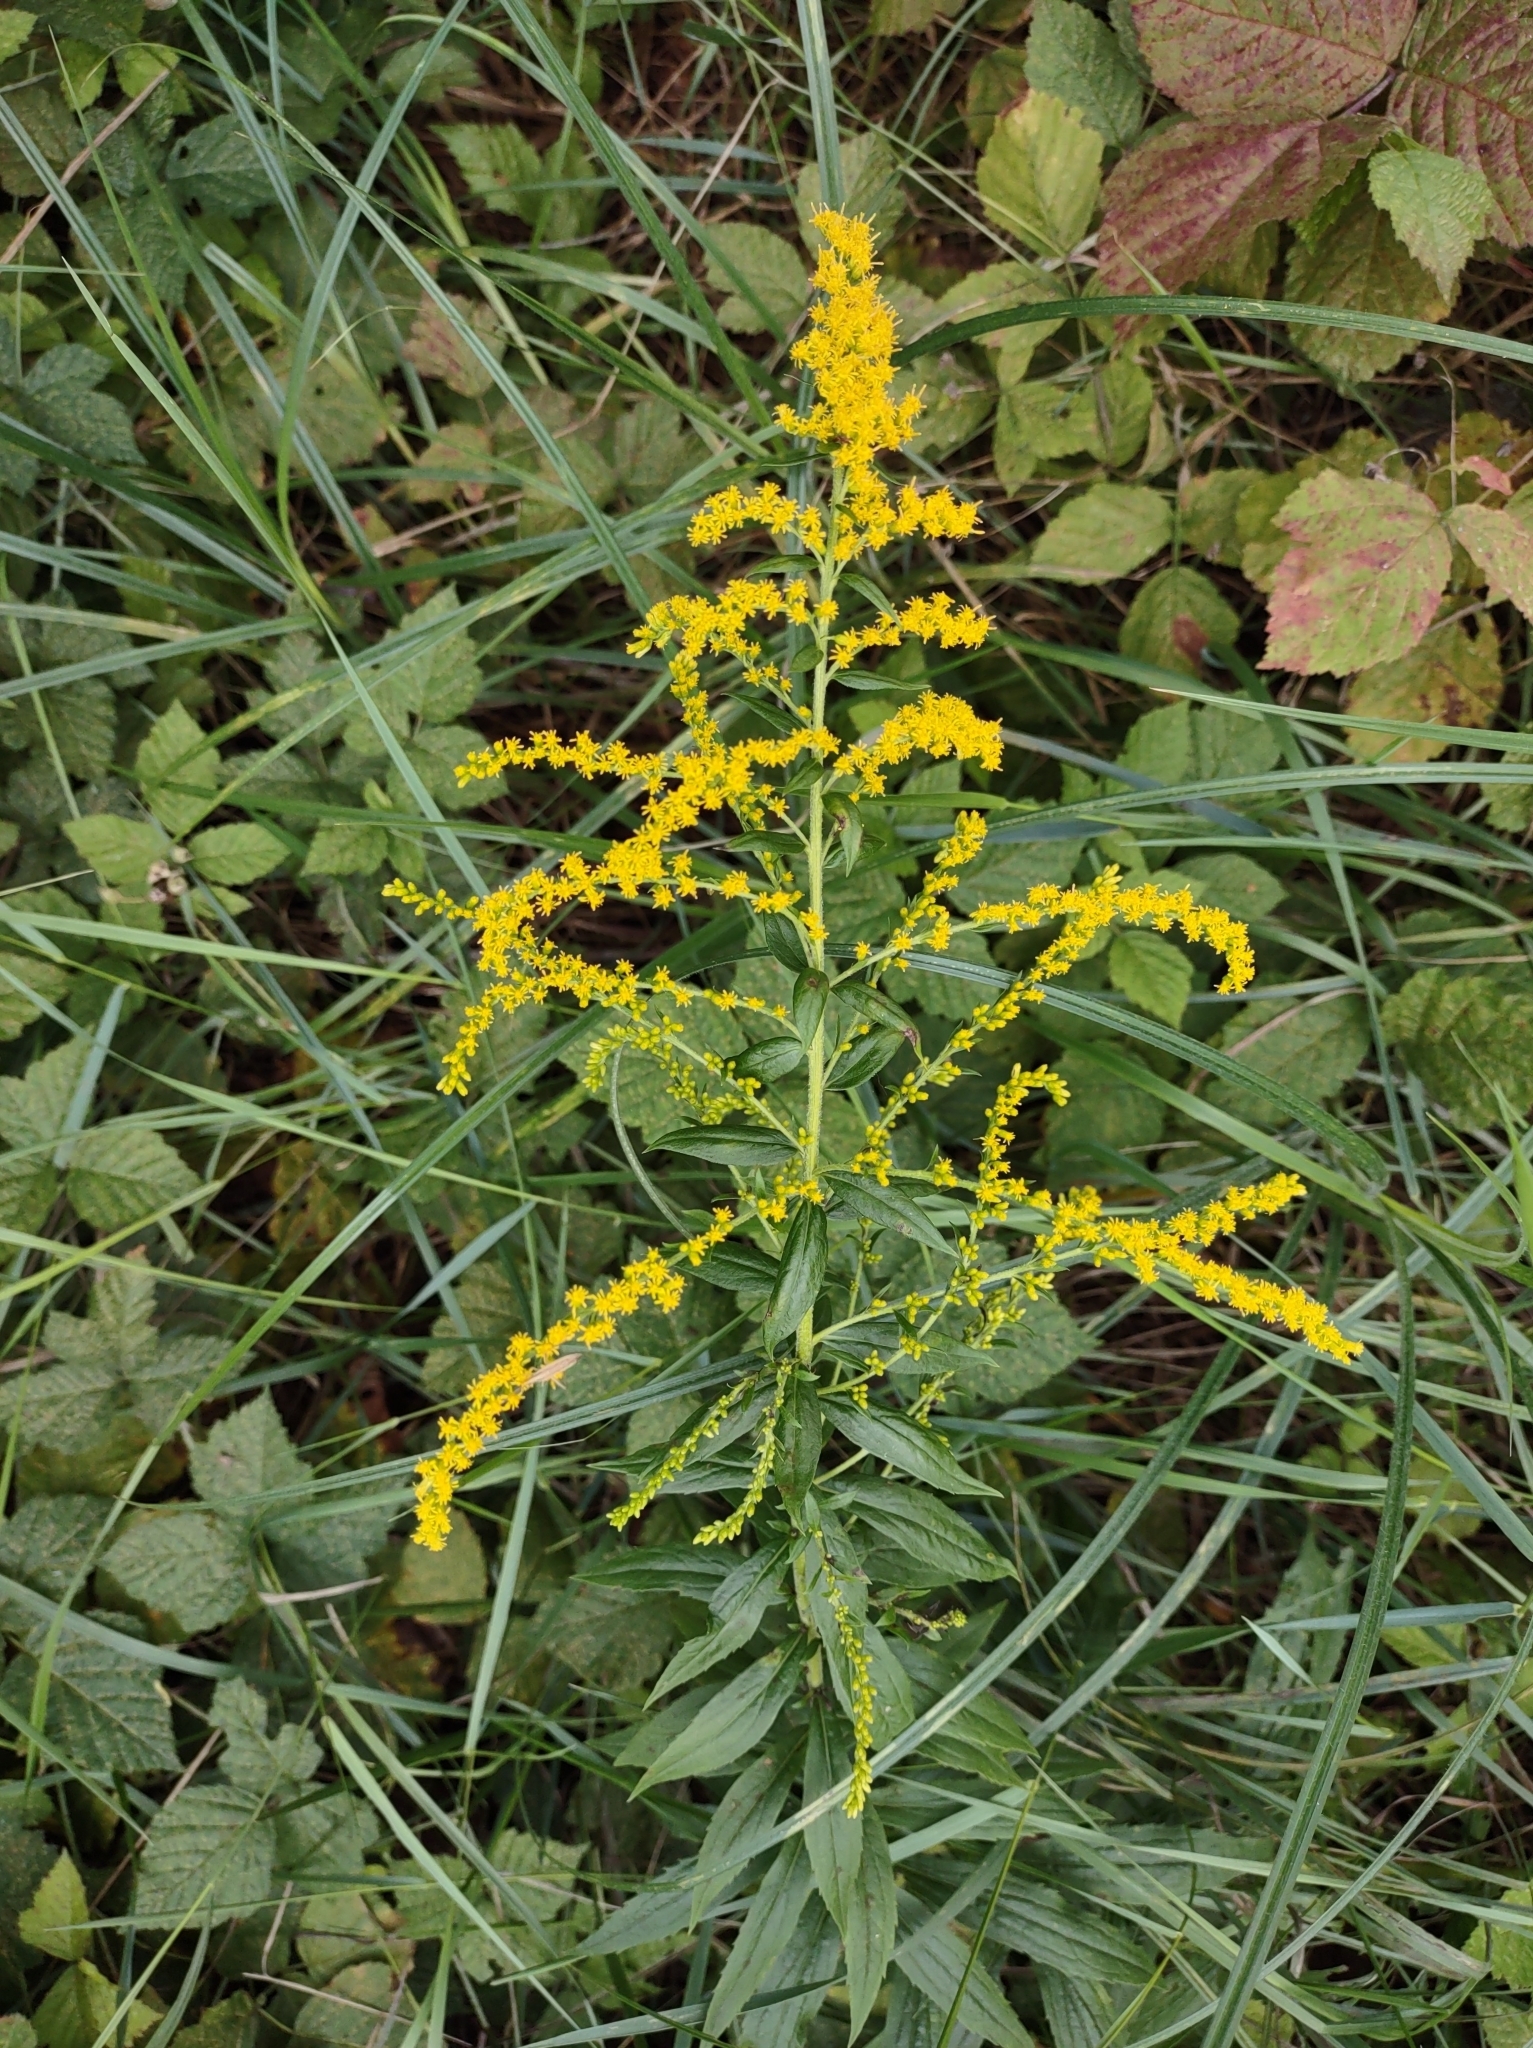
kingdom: Plantae
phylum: Tracheophyta
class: Magnoliopsida
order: Asterales
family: Asteraceae
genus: Solidago
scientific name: Solidago canadensis
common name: Canada goldenrod
